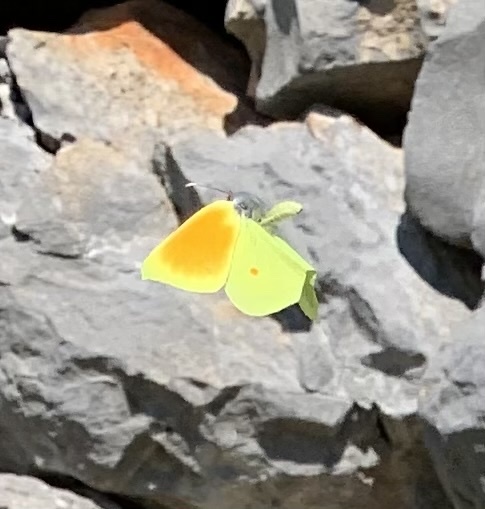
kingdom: Animalia
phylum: Arthropoda
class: Insecta
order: Lepidoptera
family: Pieridae
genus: Gonepteryx
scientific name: Gonepteryx cleopatra
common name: Cleopatra
